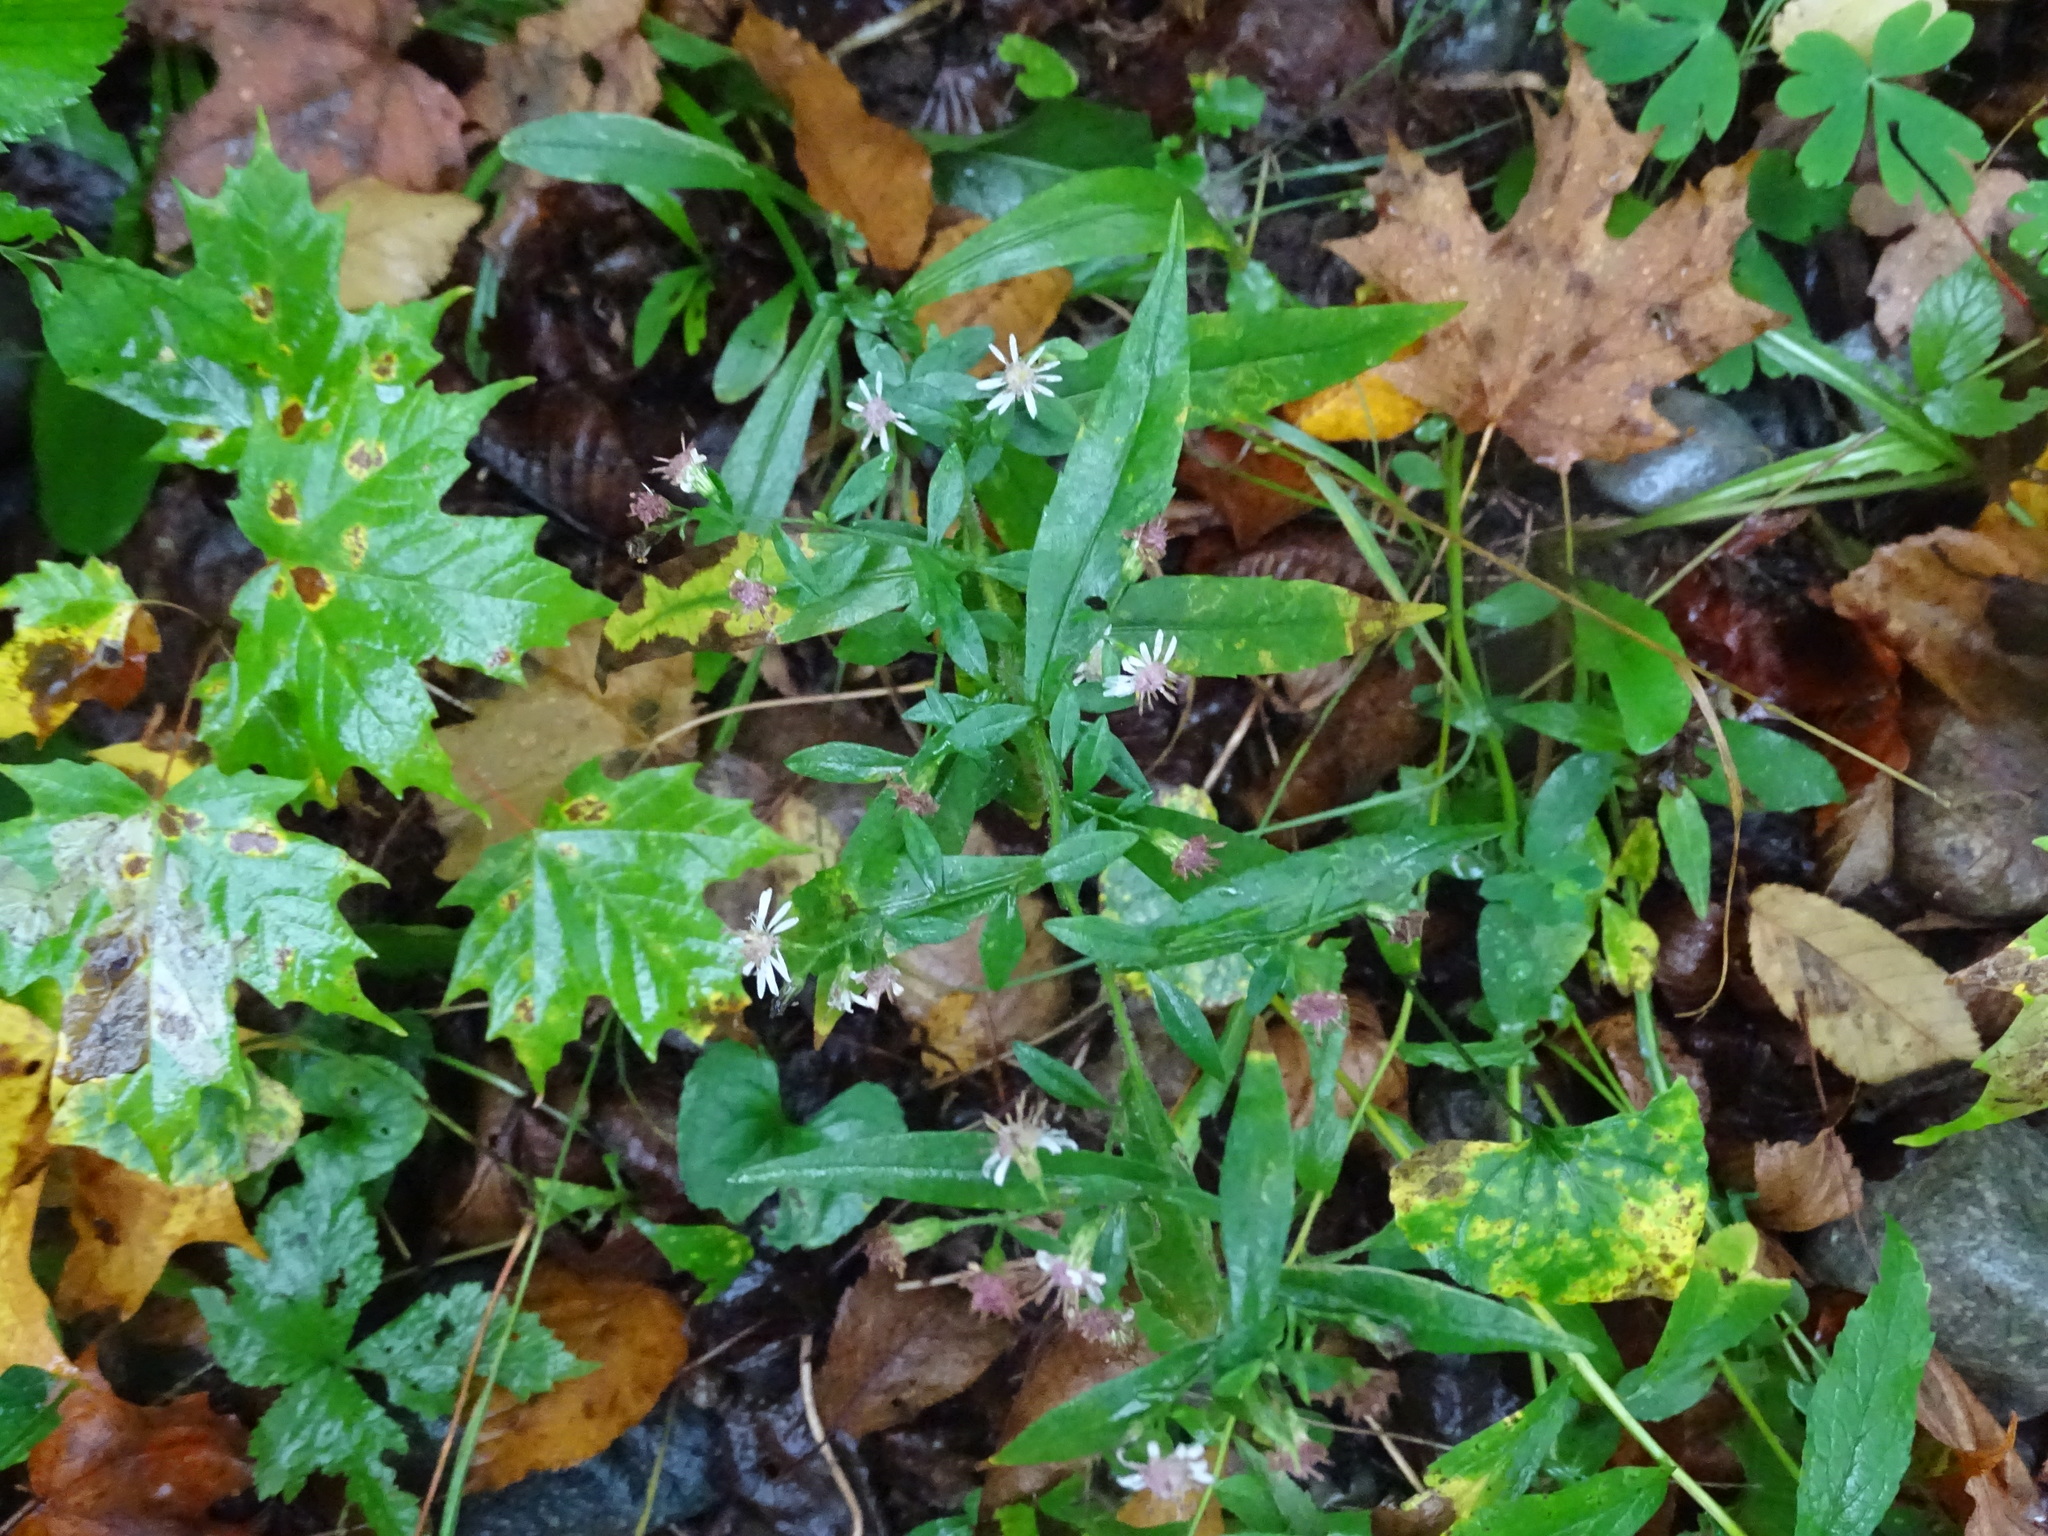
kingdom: Plantae
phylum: Tracheophyta
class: Magnoliopsida
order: Asterales
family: Asteraceae
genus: Symphyotrichum
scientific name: Symphyotrichum lateriflorum
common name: Calico aster
